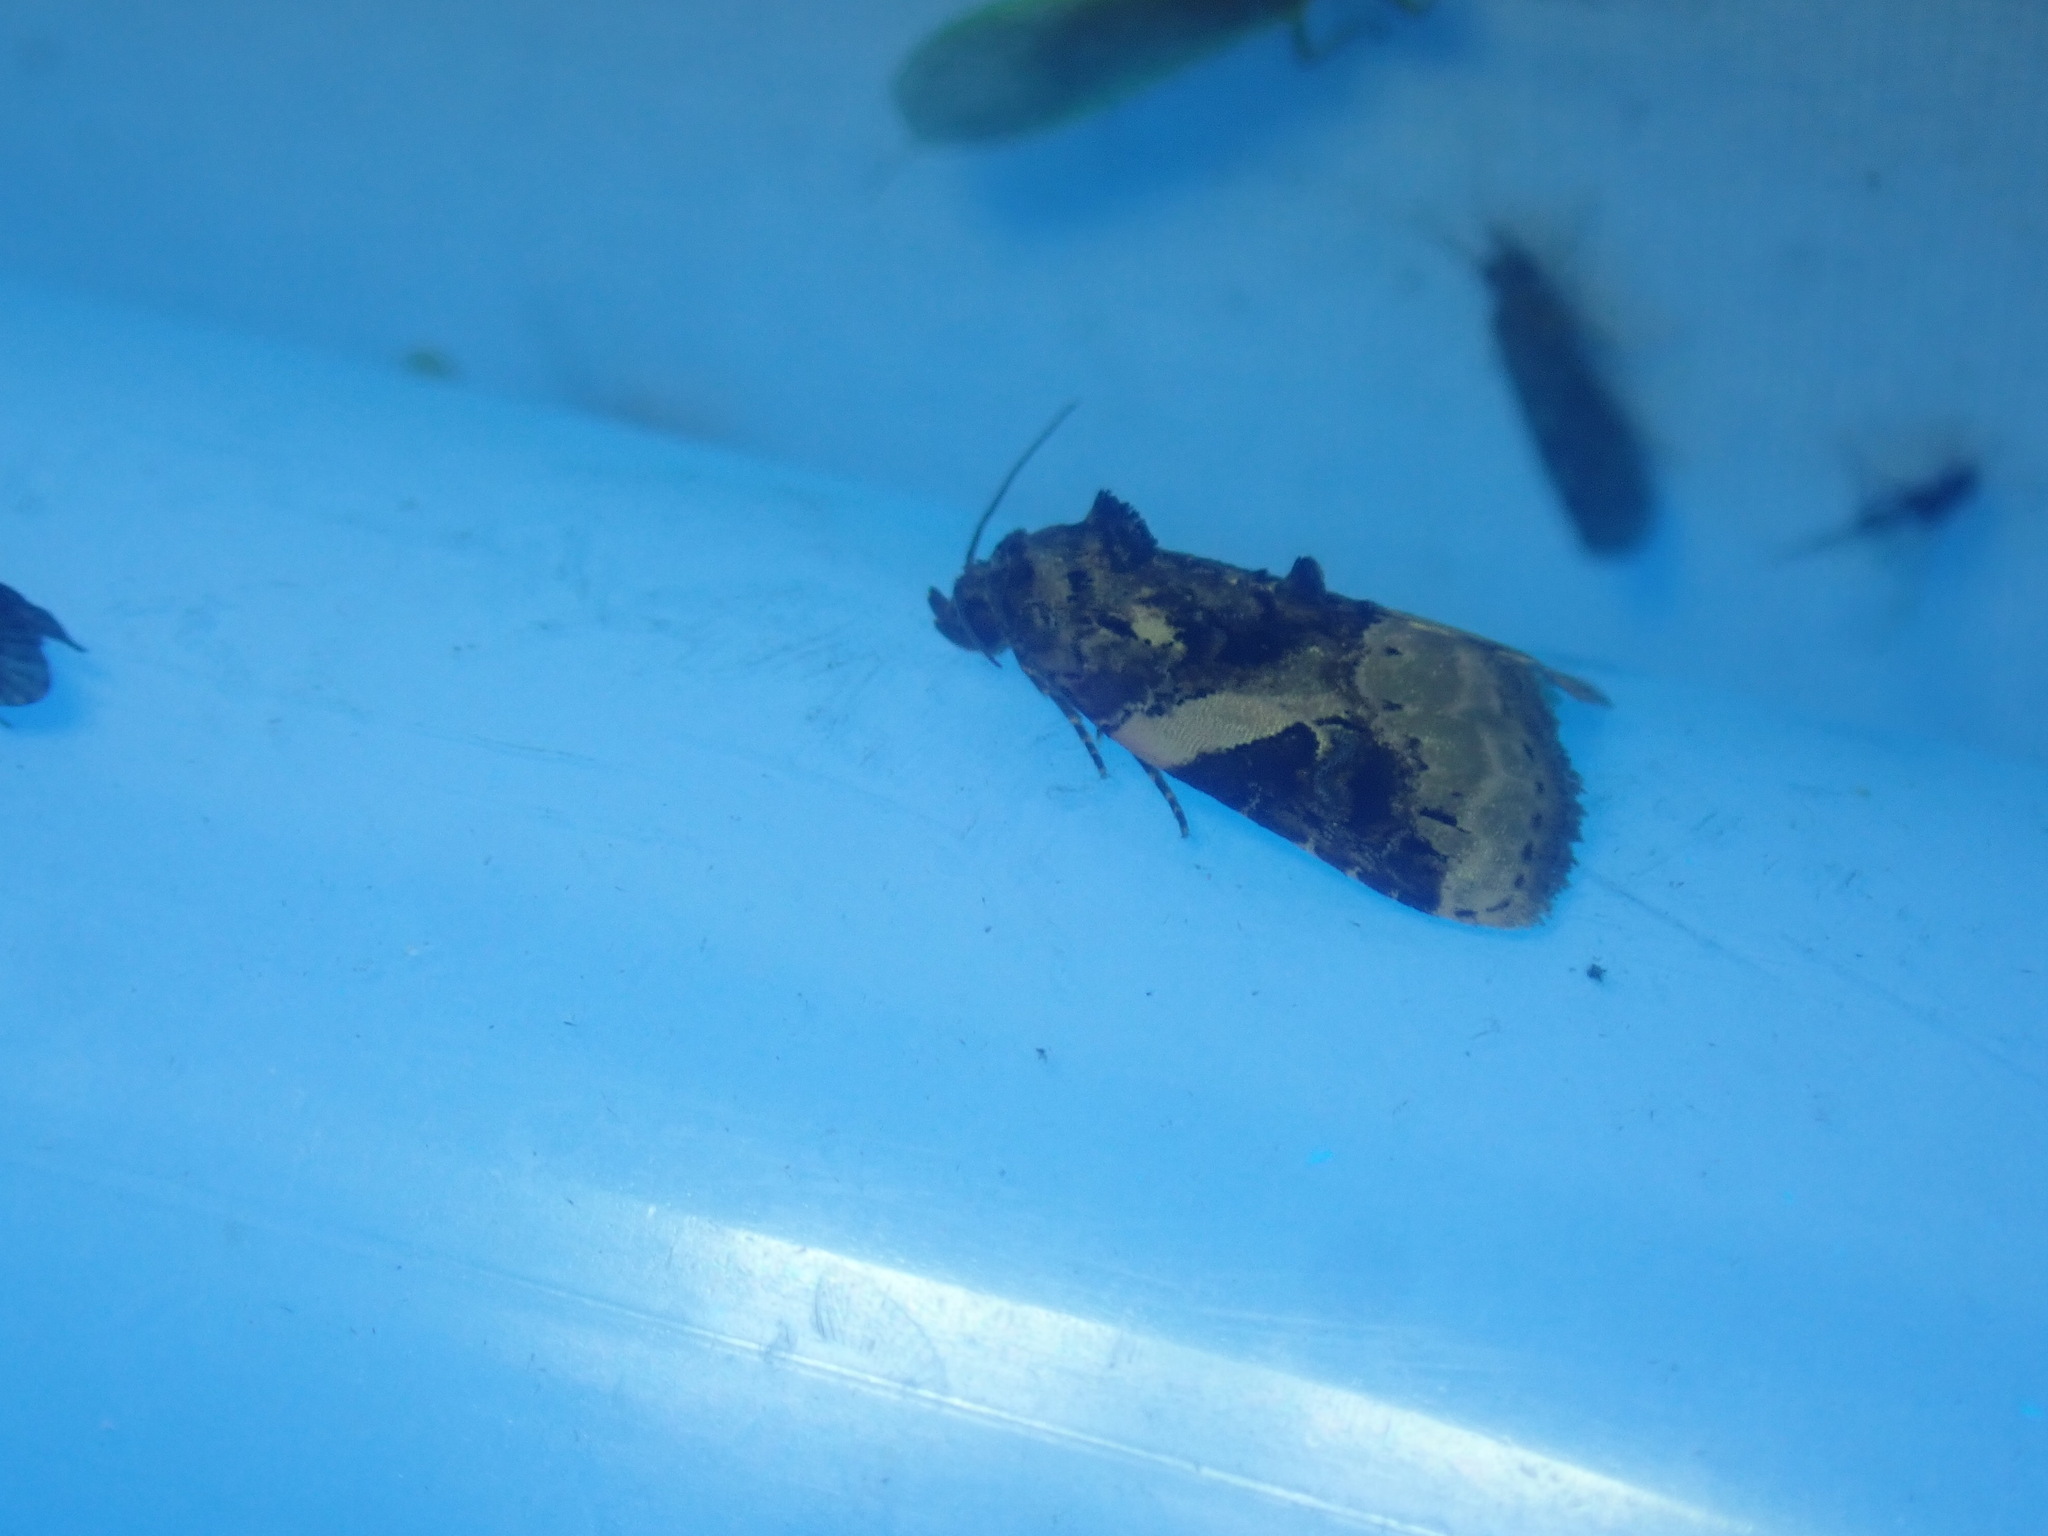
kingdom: Animalia
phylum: Arthropoda
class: Insecta
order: Lepidoptera
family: Noctuidae
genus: Pseudeustrotia
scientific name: Pseudeustrotia carneola
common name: Pink-barred lithacodia moth
